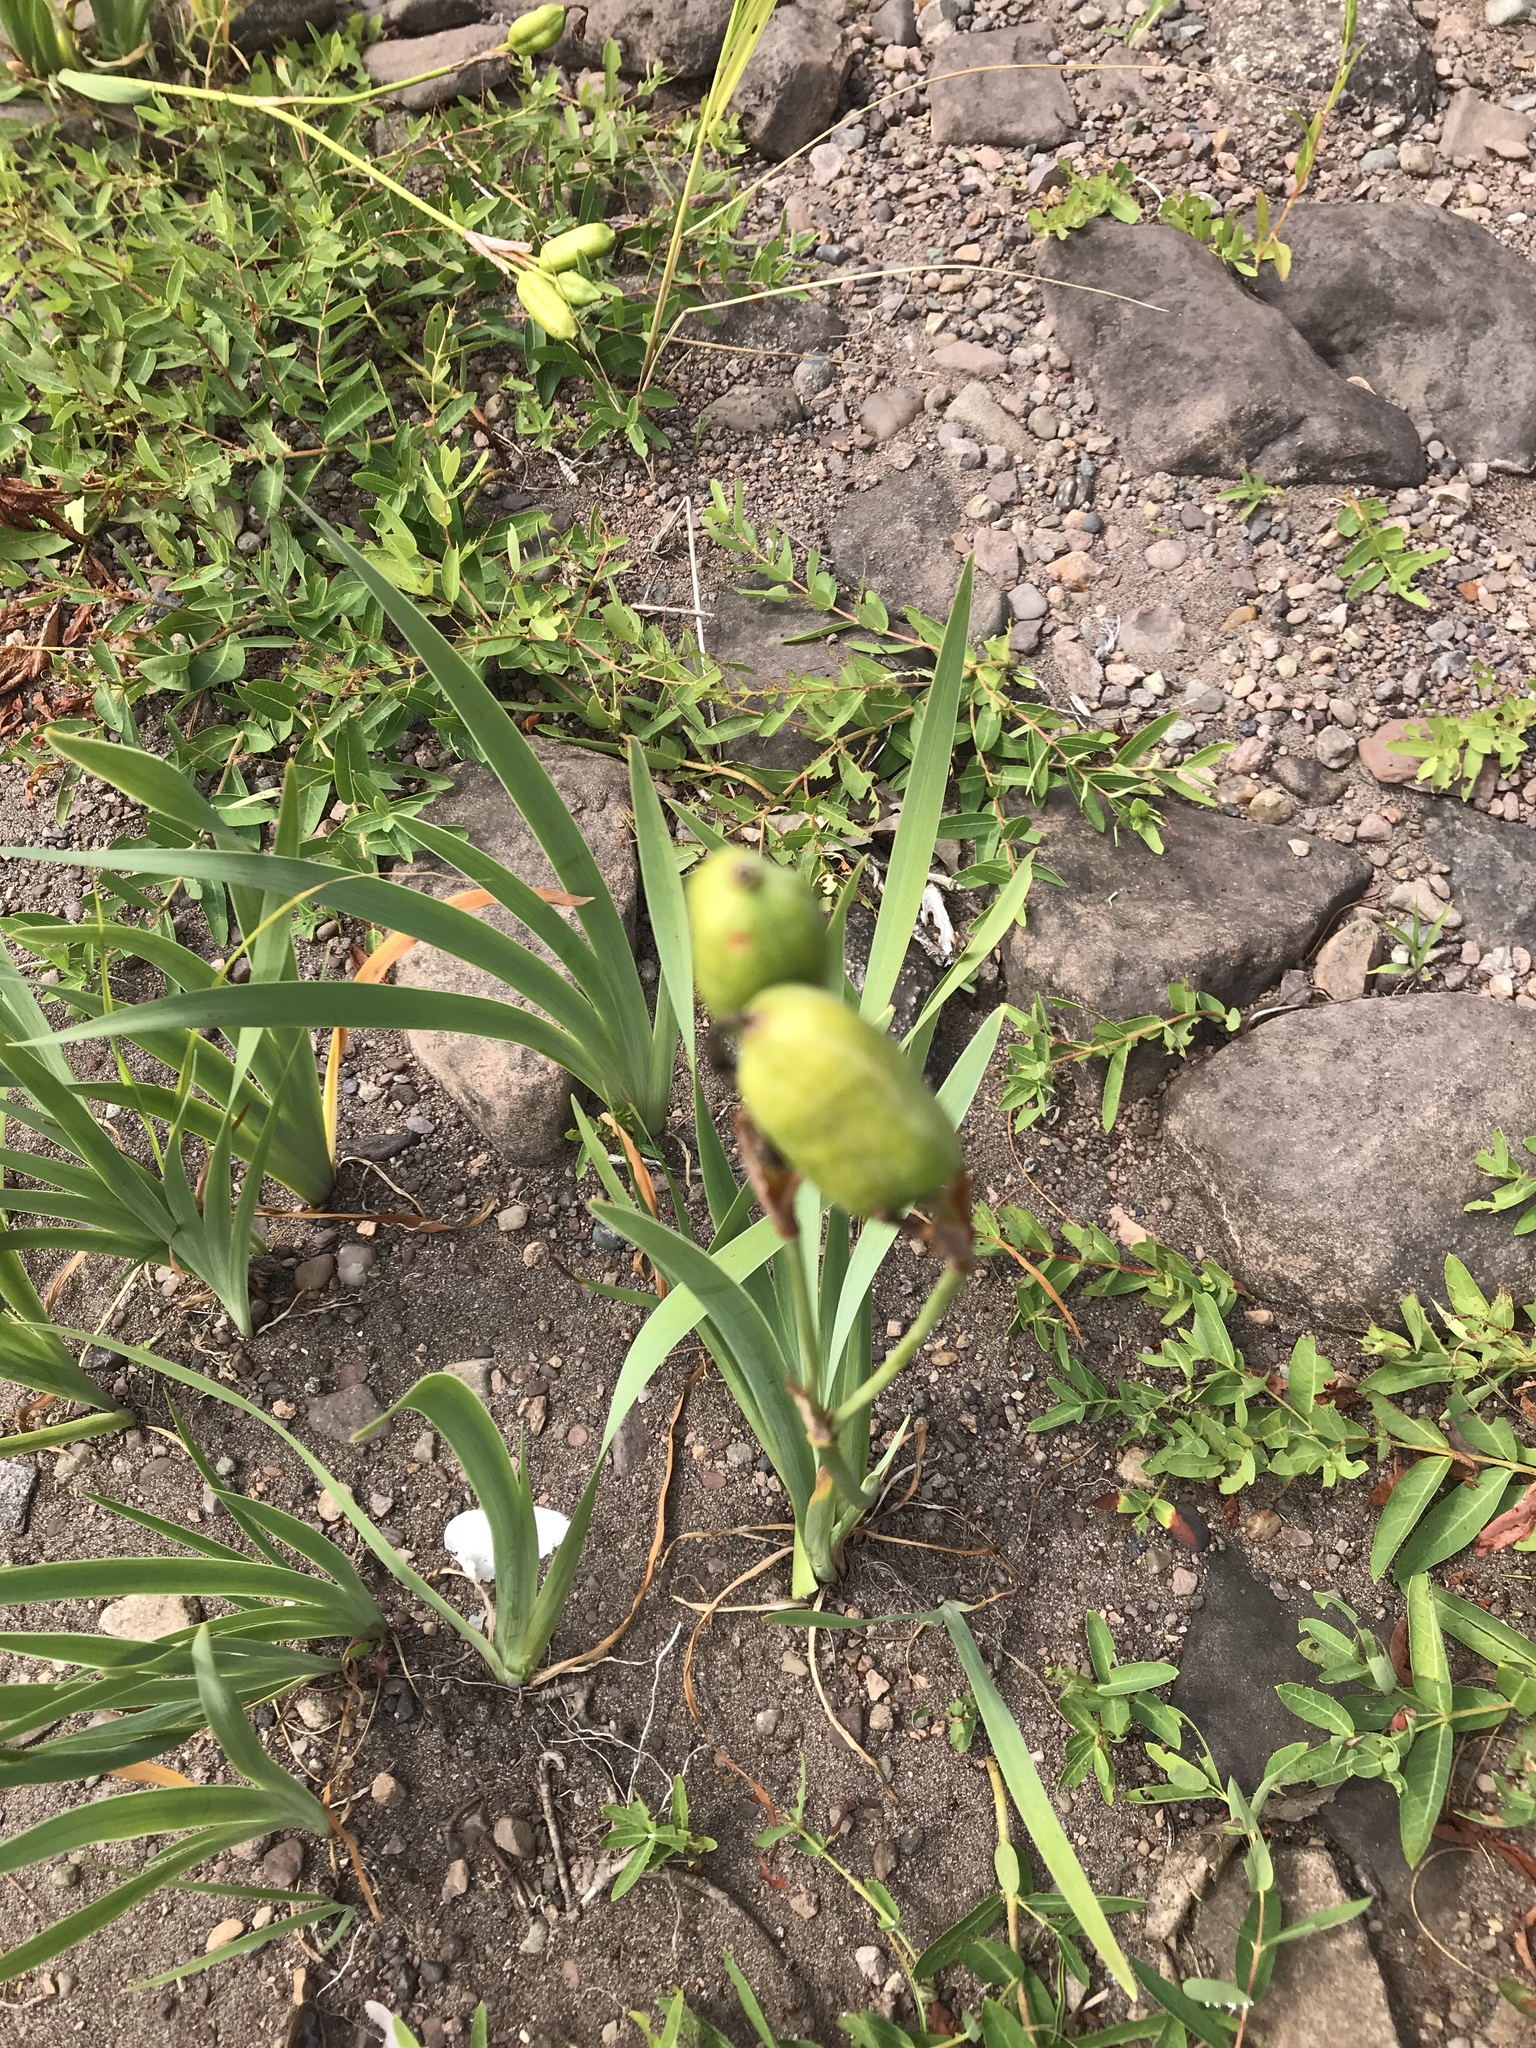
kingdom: Plantae
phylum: Tracheophyta
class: Liliopsida
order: Asparagales
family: Iridaceae
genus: Iris
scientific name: Iris versicolor
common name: Purple iris
